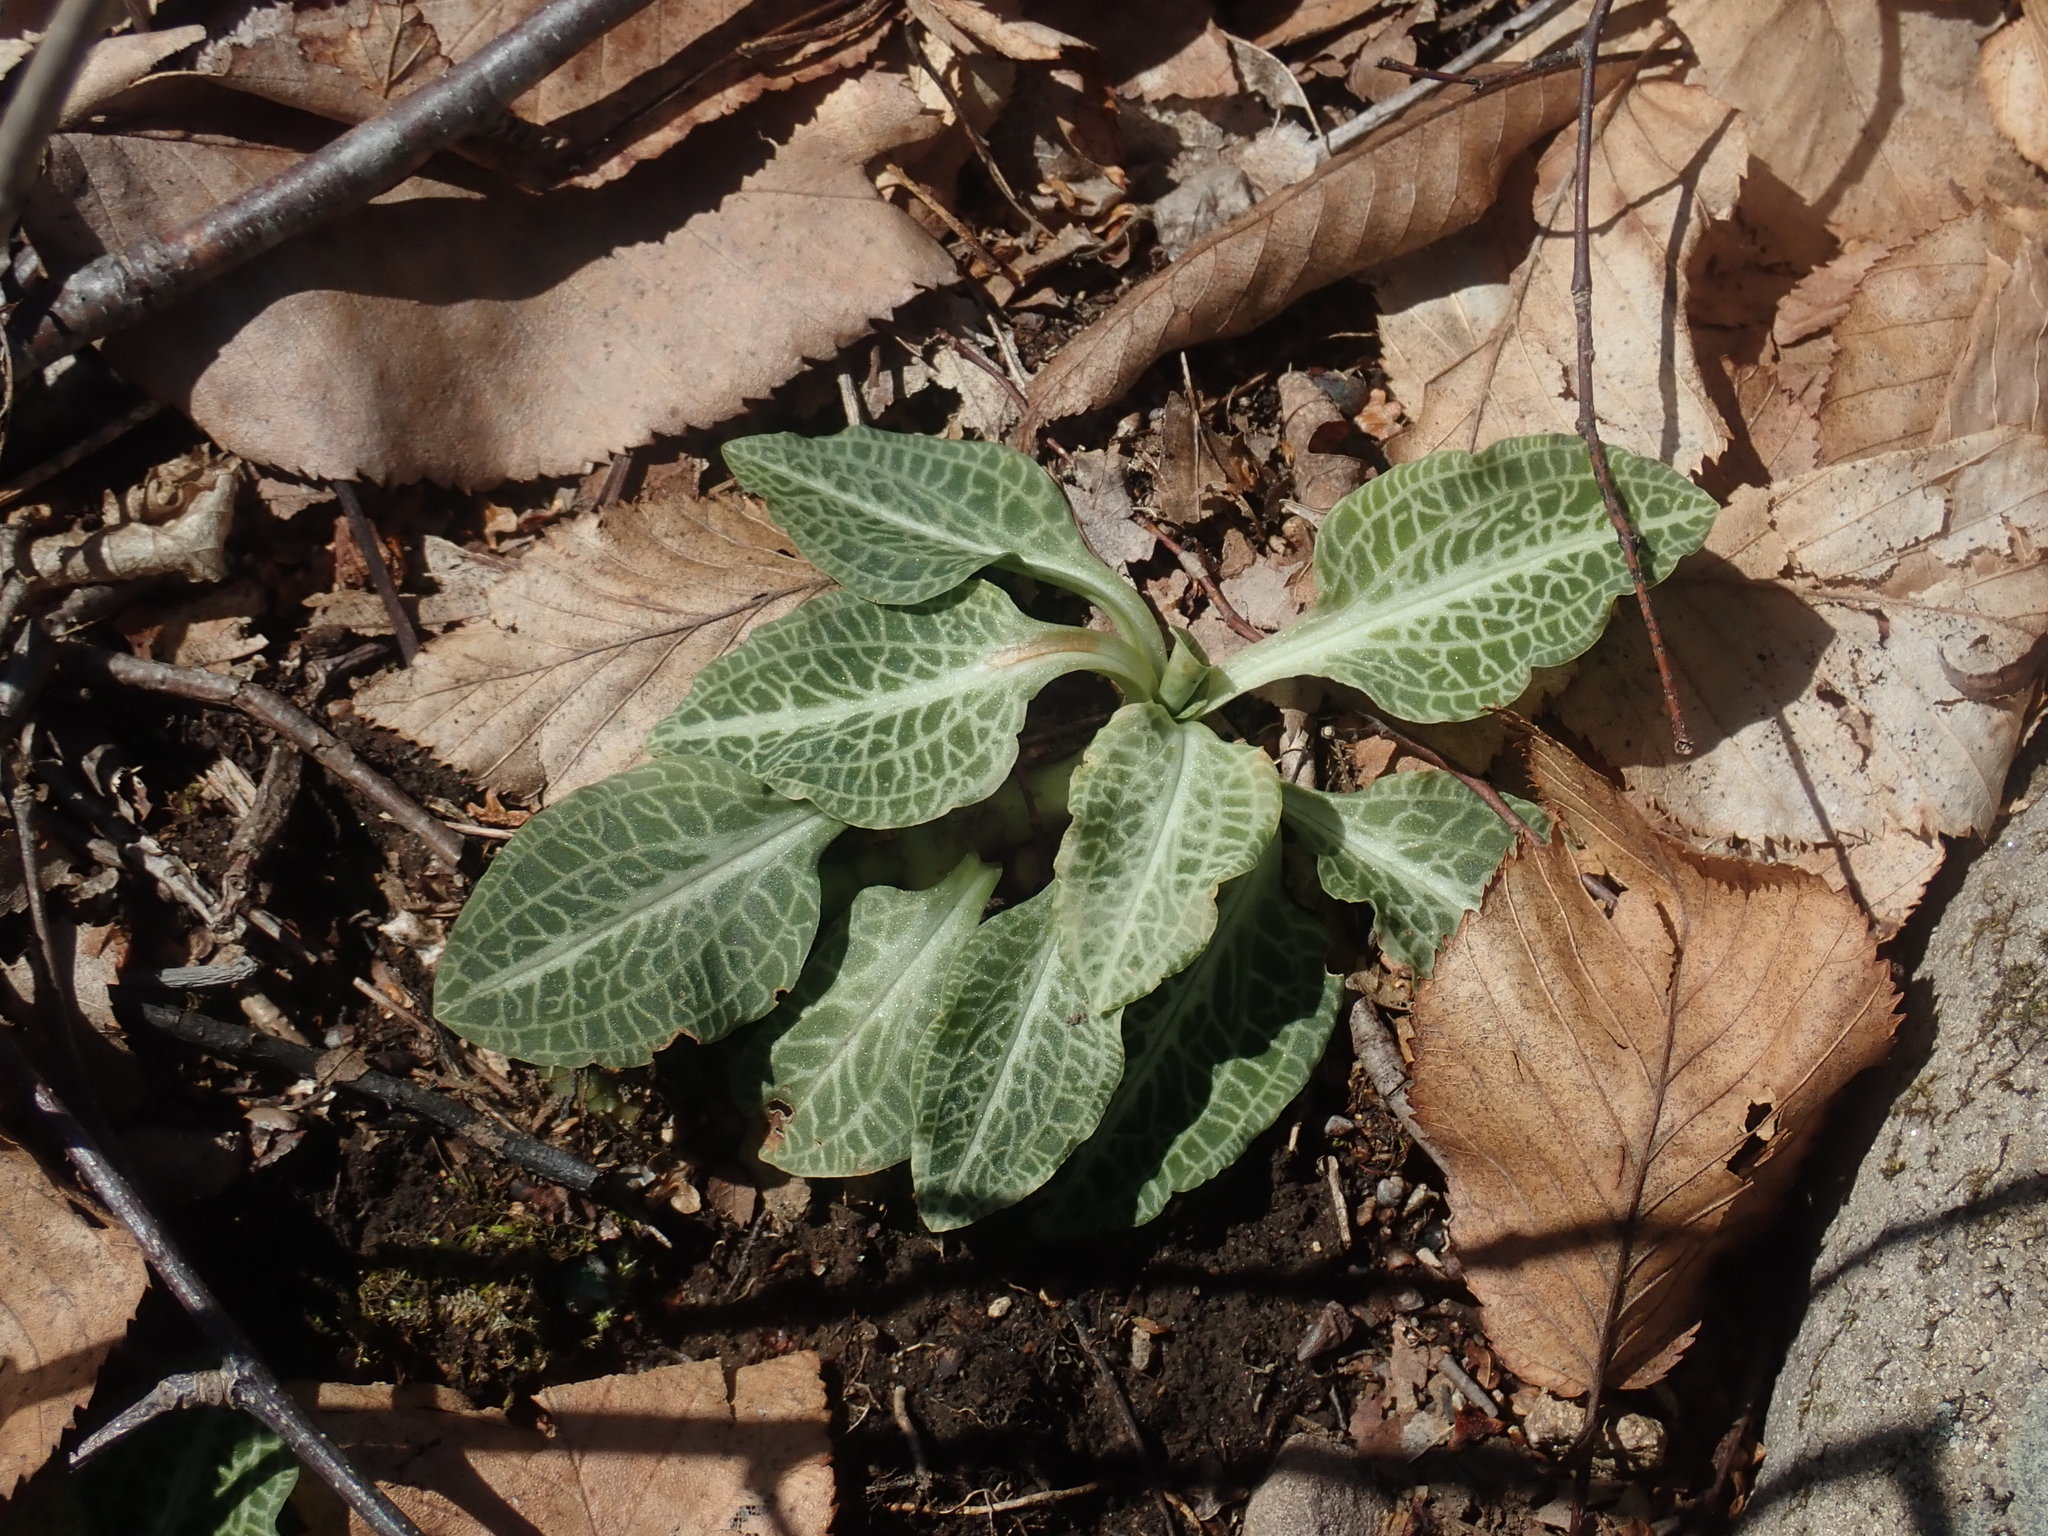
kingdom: Plantae
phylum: Tracheophyta
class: Liliopsida
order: Asparagales
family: Orchidaceae
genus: Goodyera
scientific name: Goodyera pubescens
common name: Downy rattlesnake-plantain
